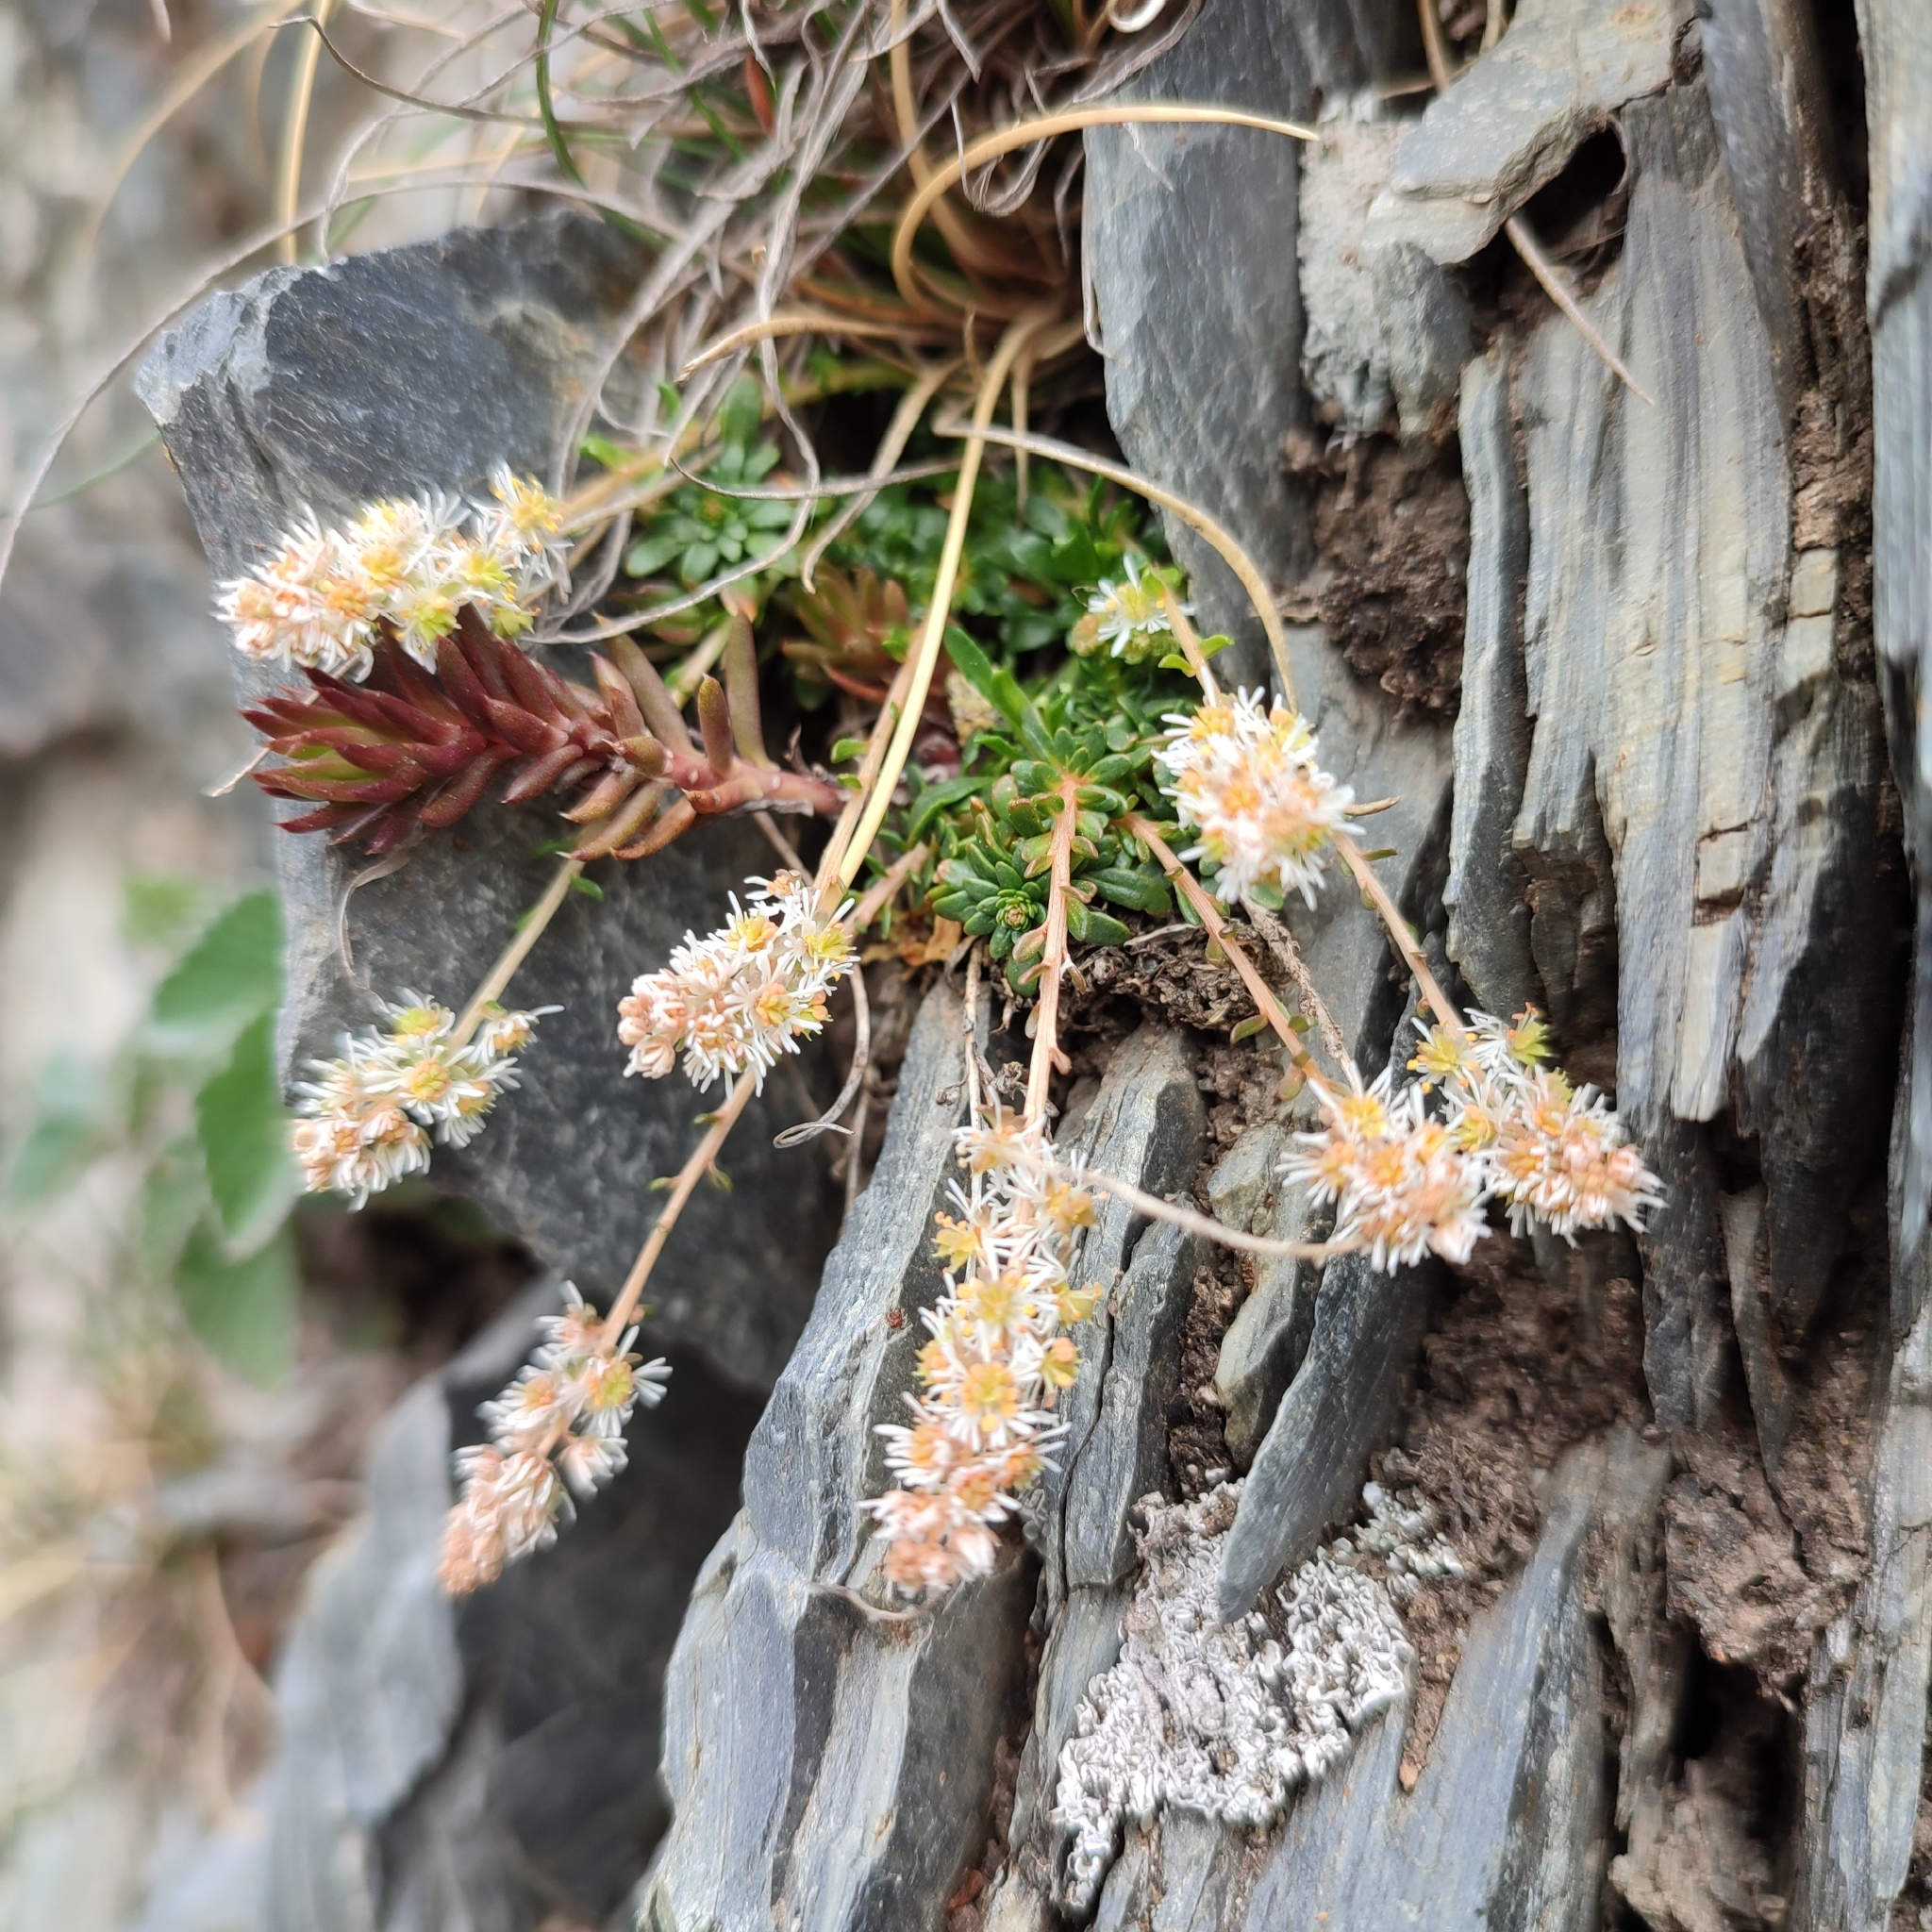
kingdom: Plantae
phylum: Tracheophyta
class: Magnoliopsida
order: Brassicales
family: Resedaceae
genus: Sesamoides
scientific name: Sesamoides interrupta
